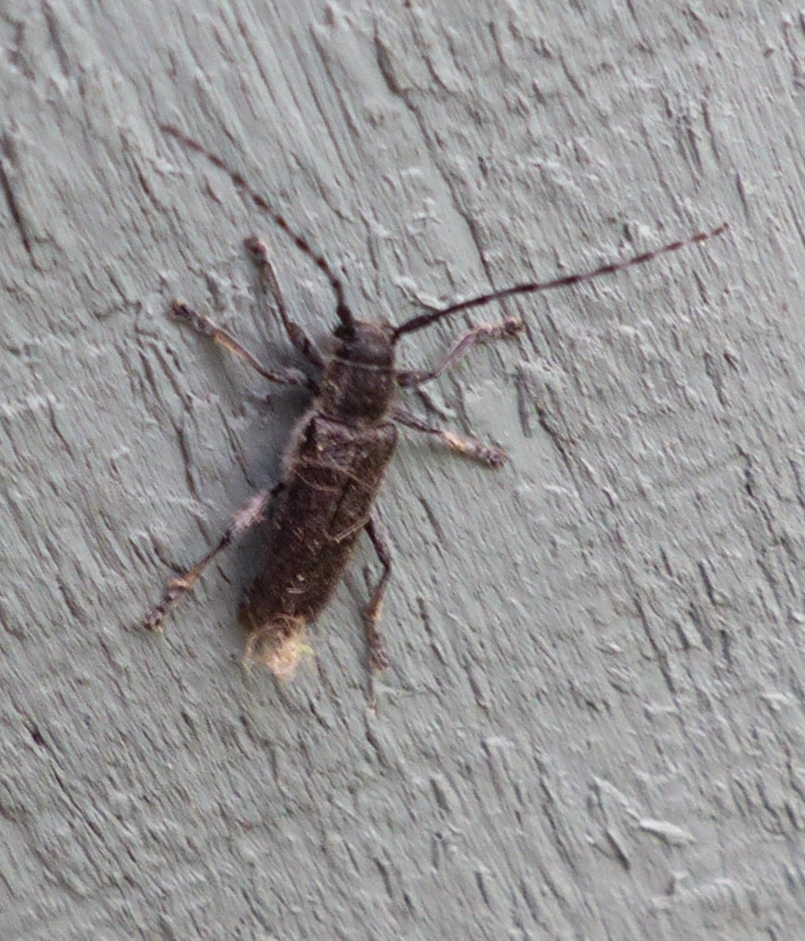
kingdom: Animalia
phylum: Arthropoda
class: Insecta
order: Coleoptera
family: Cerambycidae
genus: Saperda
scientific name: Saperda moesta
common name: Long-horned beetle
